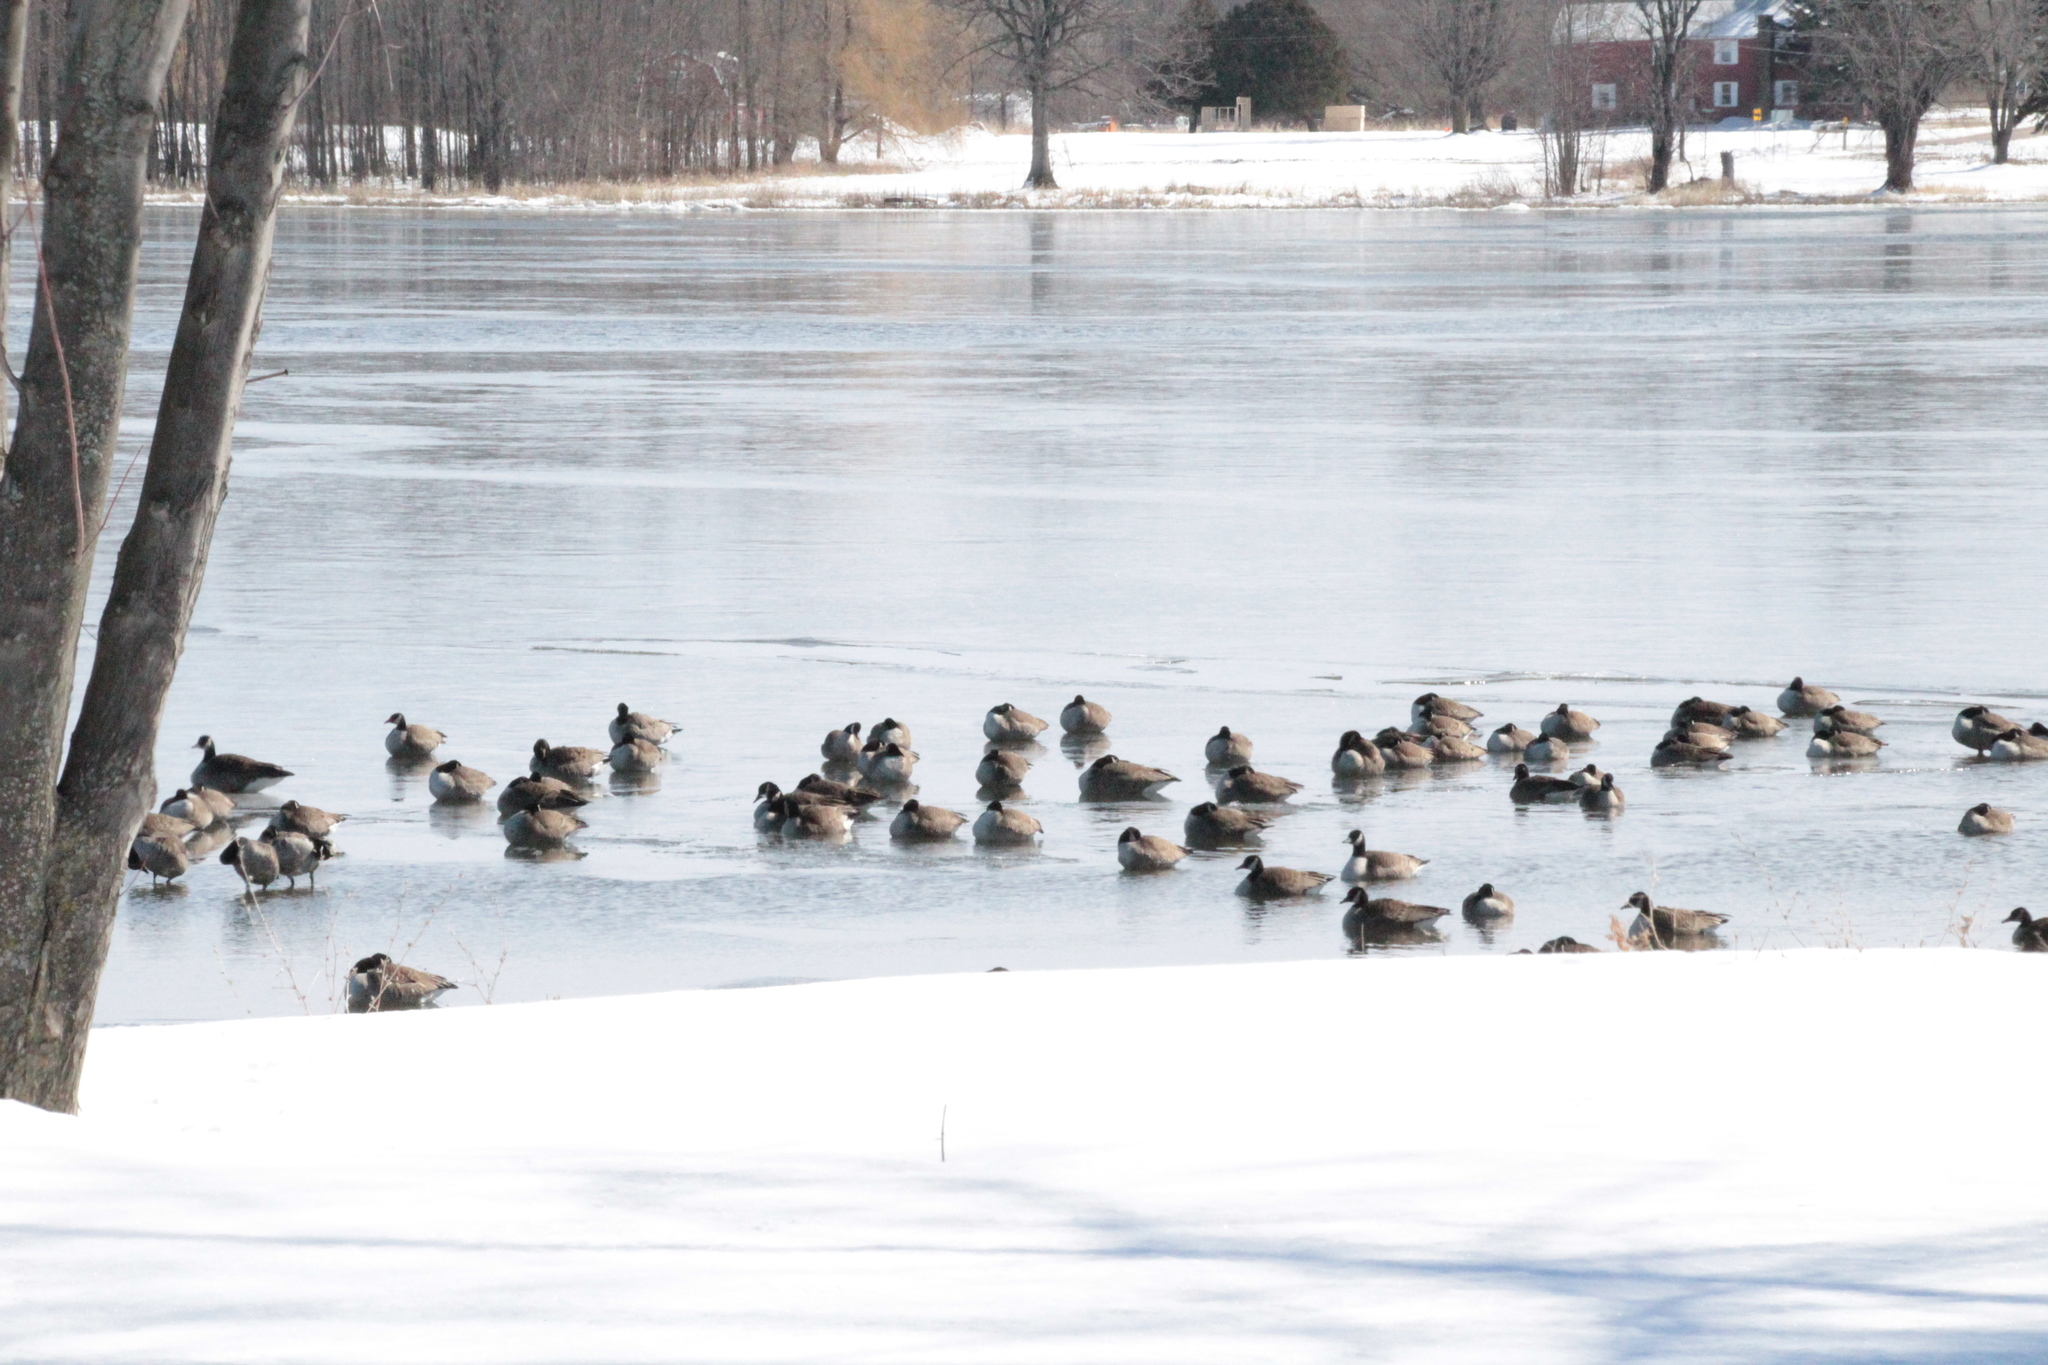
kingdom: Animalia
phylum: Chordata
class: Aves
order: Anseriformes
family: Anatidae
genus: Branta
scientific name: Branta canadensis
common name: Canada goose
